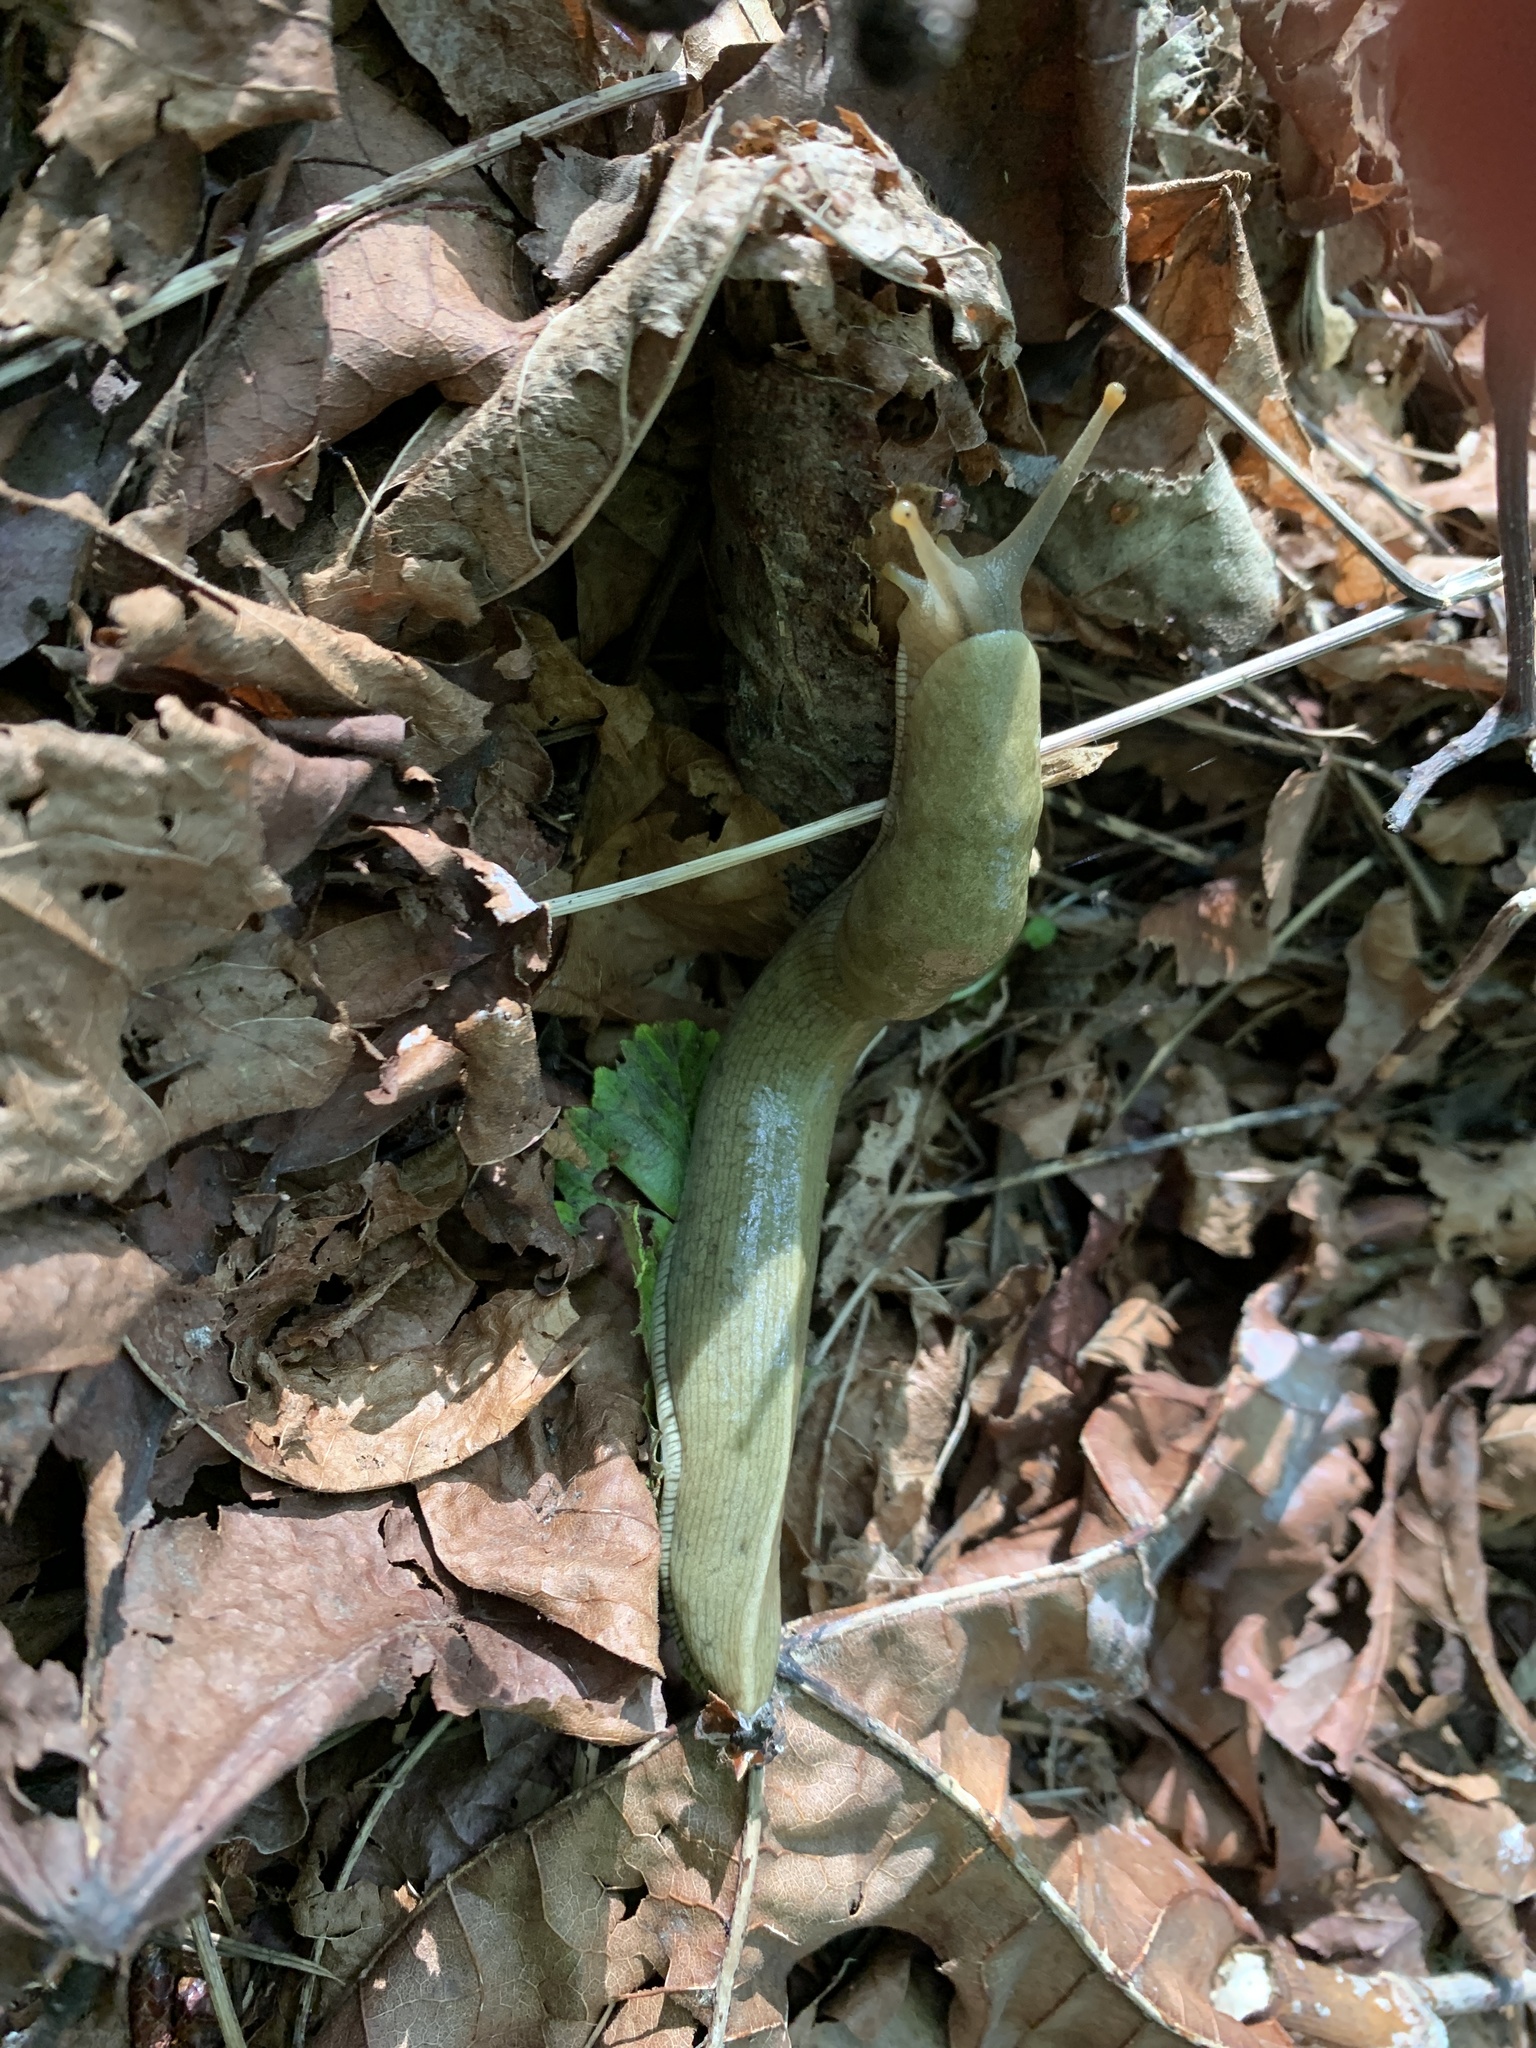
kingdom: Animalia
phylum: Mollusca
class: Gastropoda
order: Stylommatophora
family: Ariolimacidae
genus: Ariolimax
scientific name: Ariolimax columbianus
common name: Pacific banana slug
